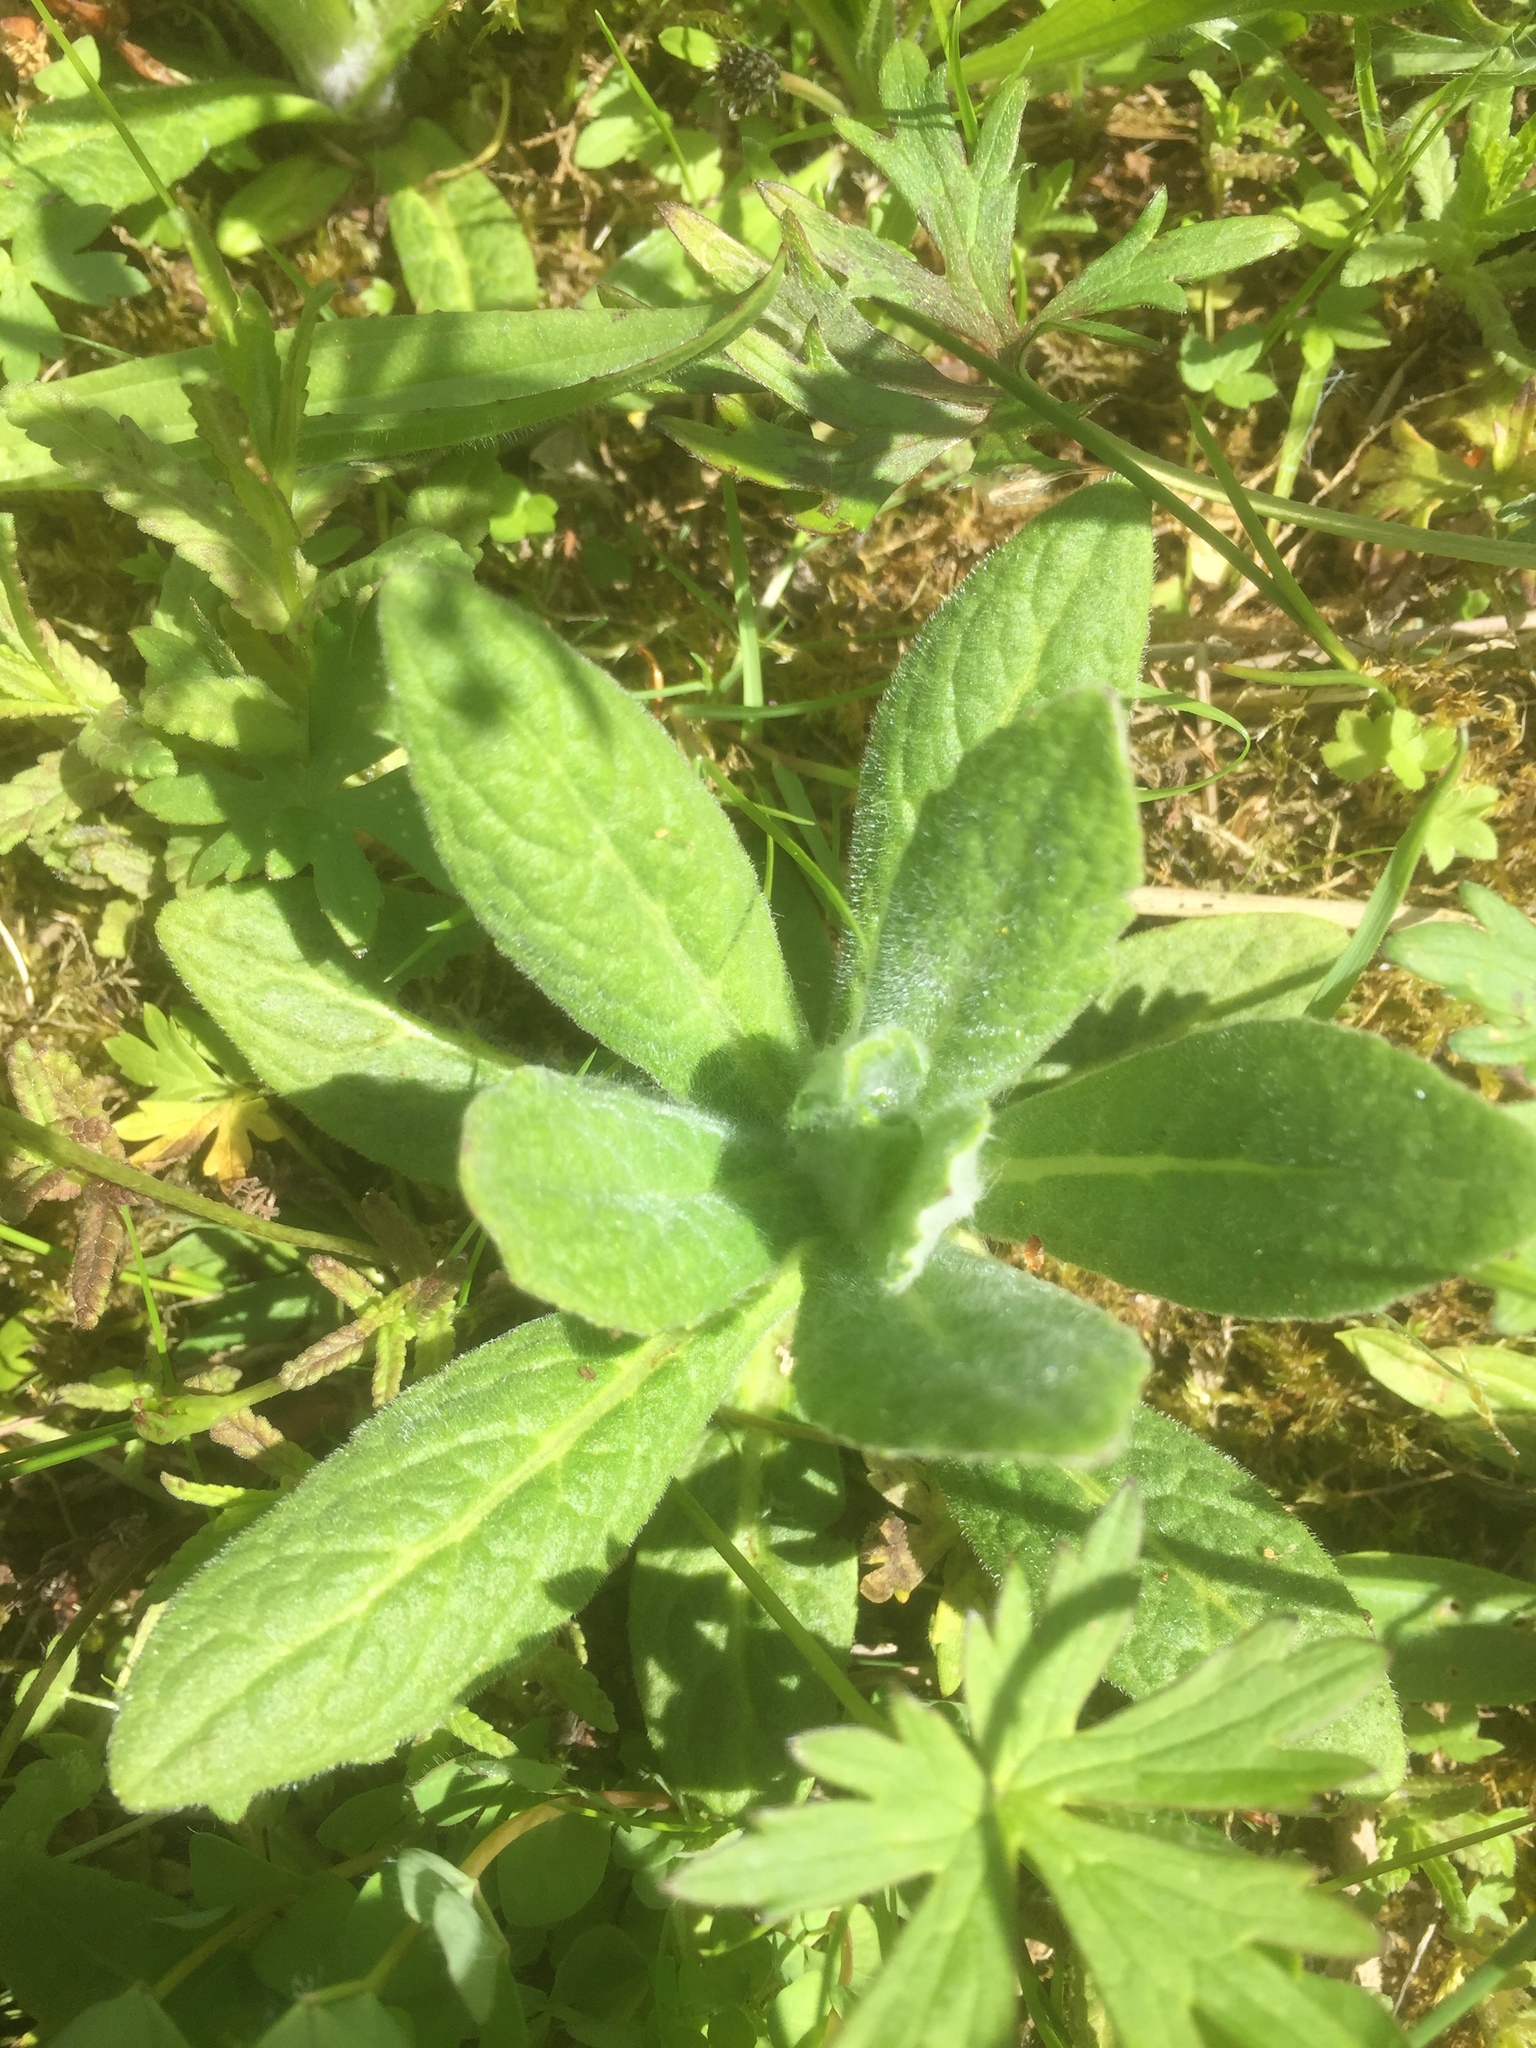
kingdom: Plantae
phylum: Tracheophyta
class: Magnoliopsida
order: Asterales
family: Asteraceae
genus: Pulicaria
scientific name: Pulicaria dysenterica
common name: Common fleabane
